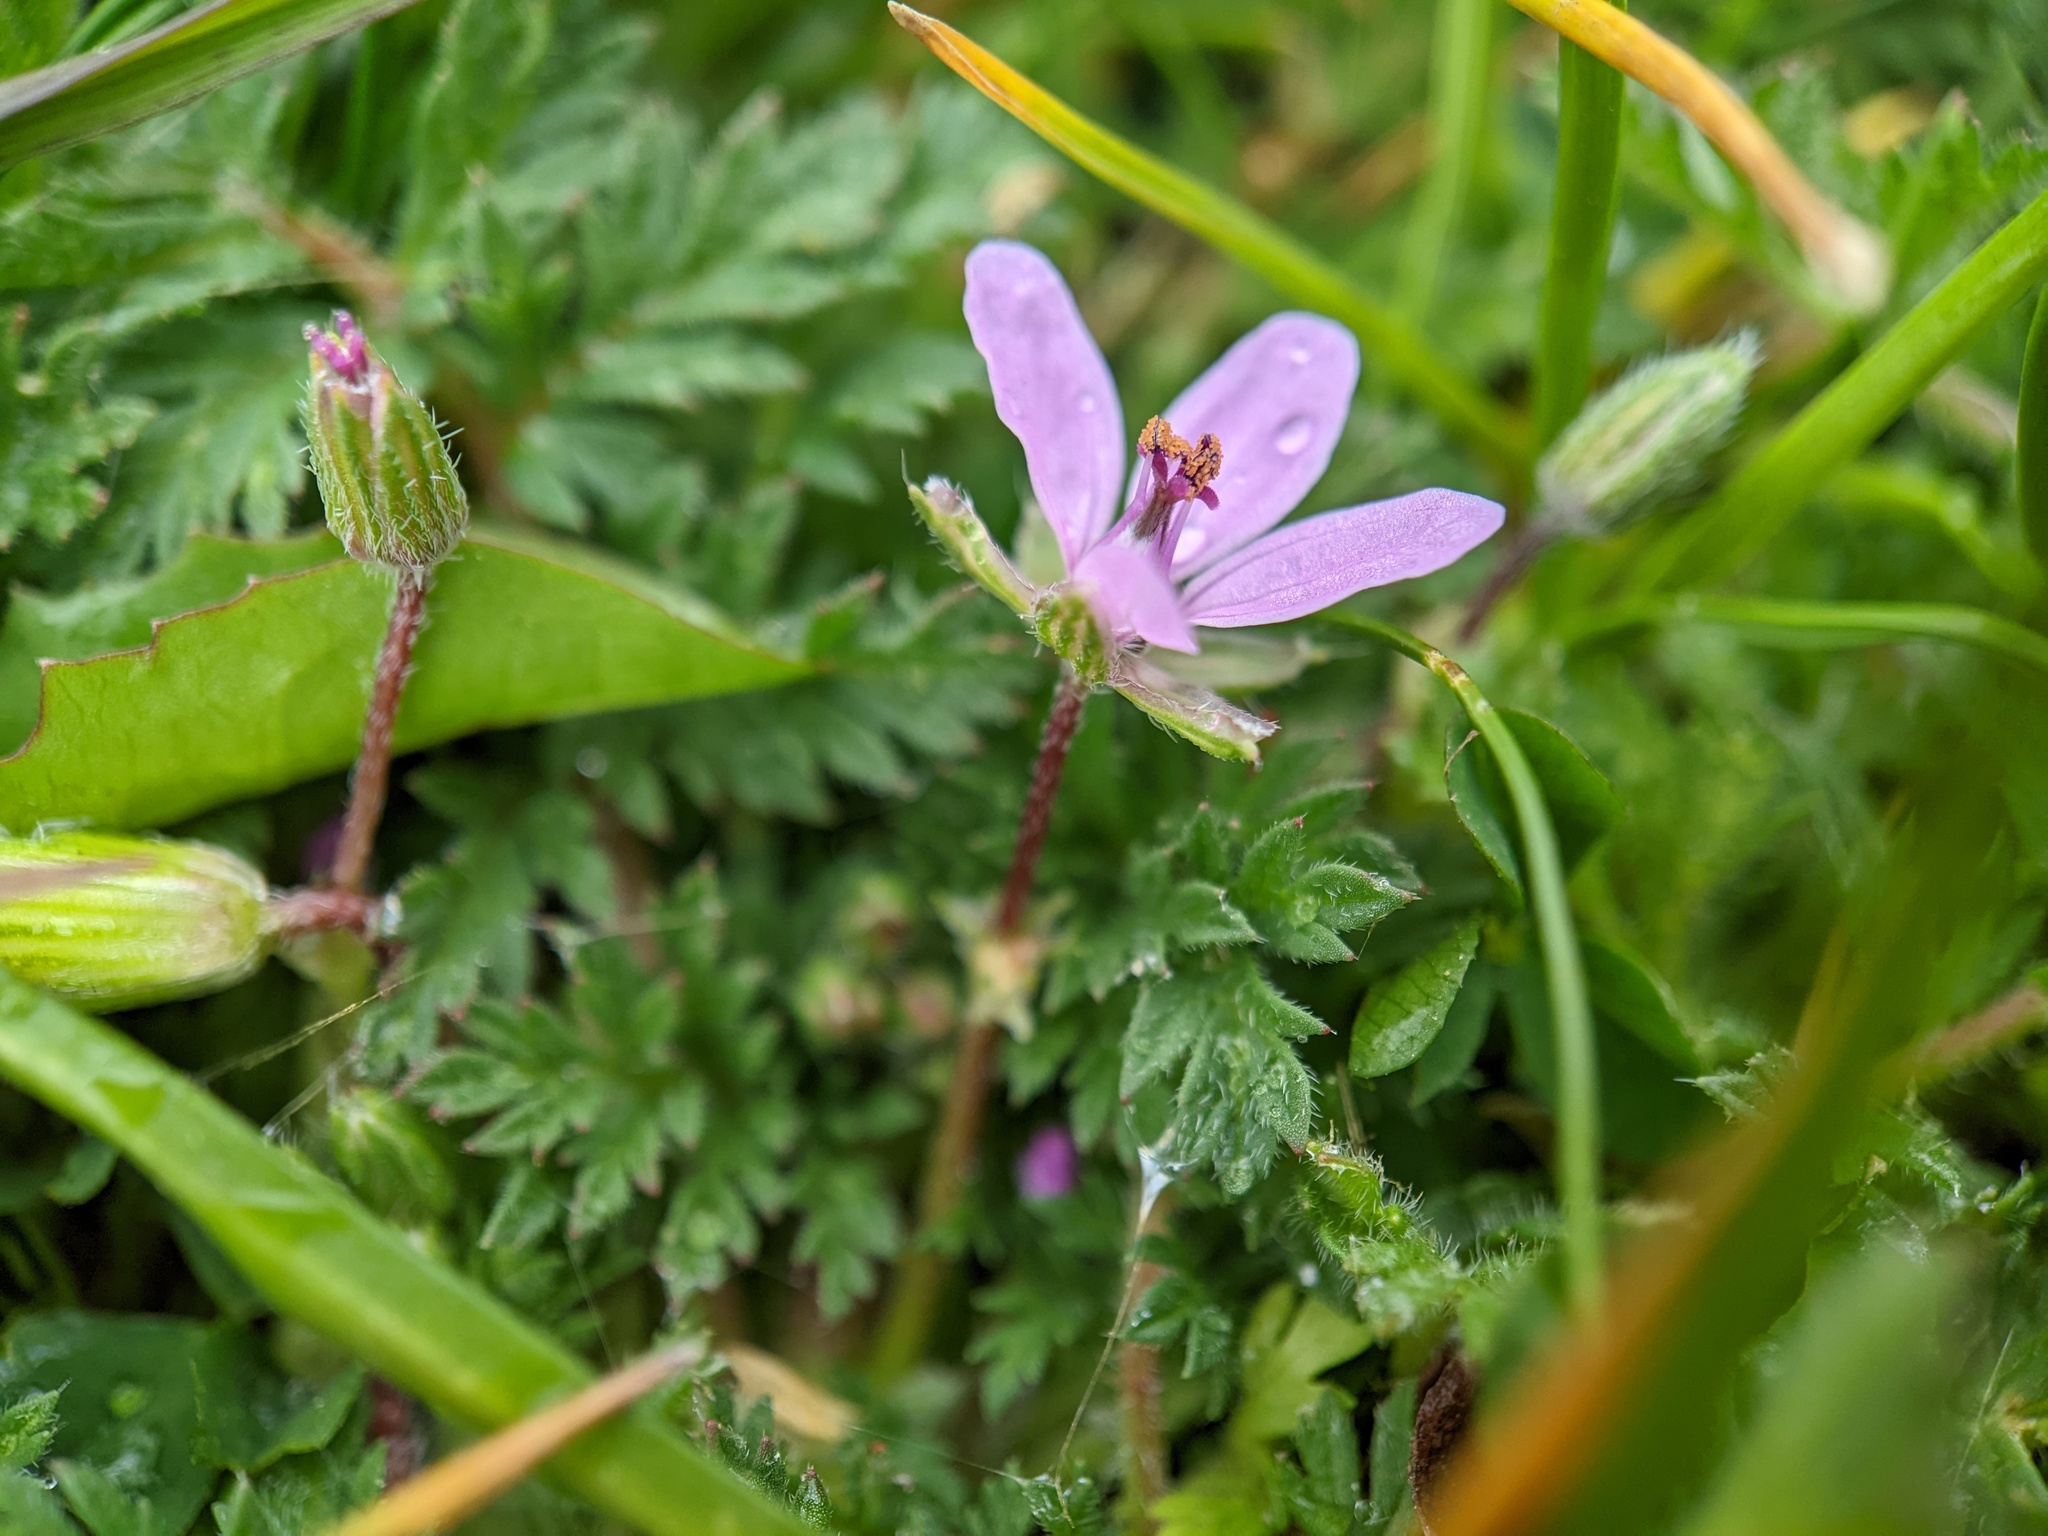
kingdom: Plantae
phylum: Tracheophyta
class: Magnoliopsida
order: Geraniales
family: Geraniaceae
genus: Erodium
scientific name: Erodium cicutarium
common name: Common stork's-bill
